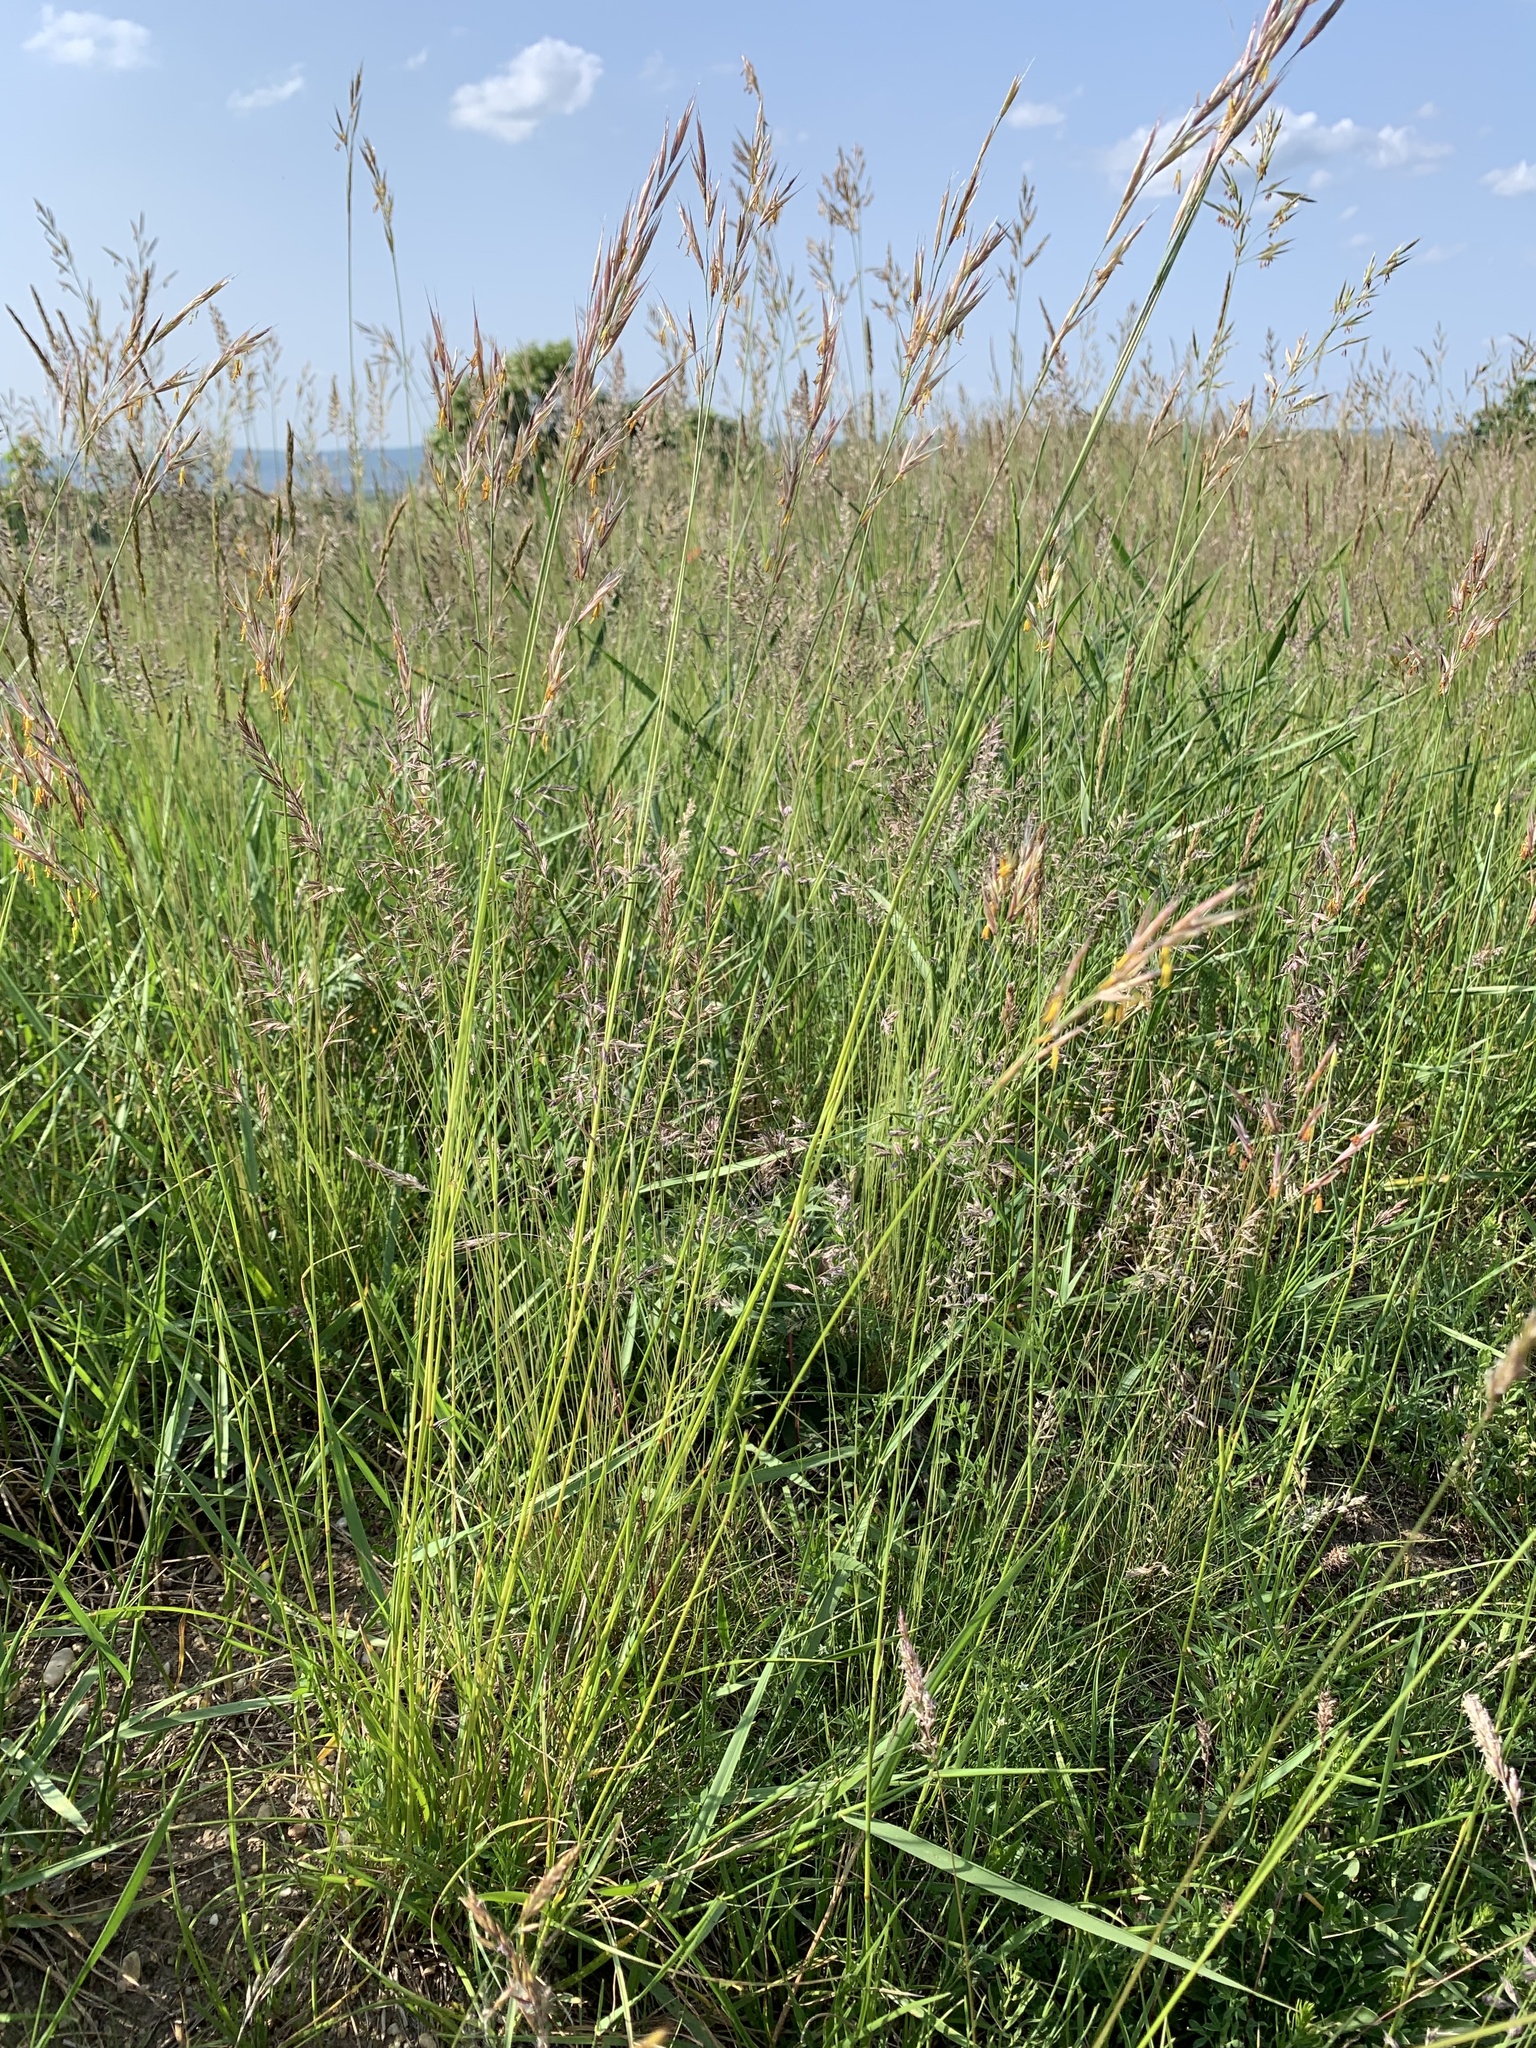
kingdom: Plantae
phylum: Tracheophyta
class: Liliopsida
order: Poales
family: Poaceae
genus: Bromus
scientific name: Bromus erectus
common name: Erect brome
